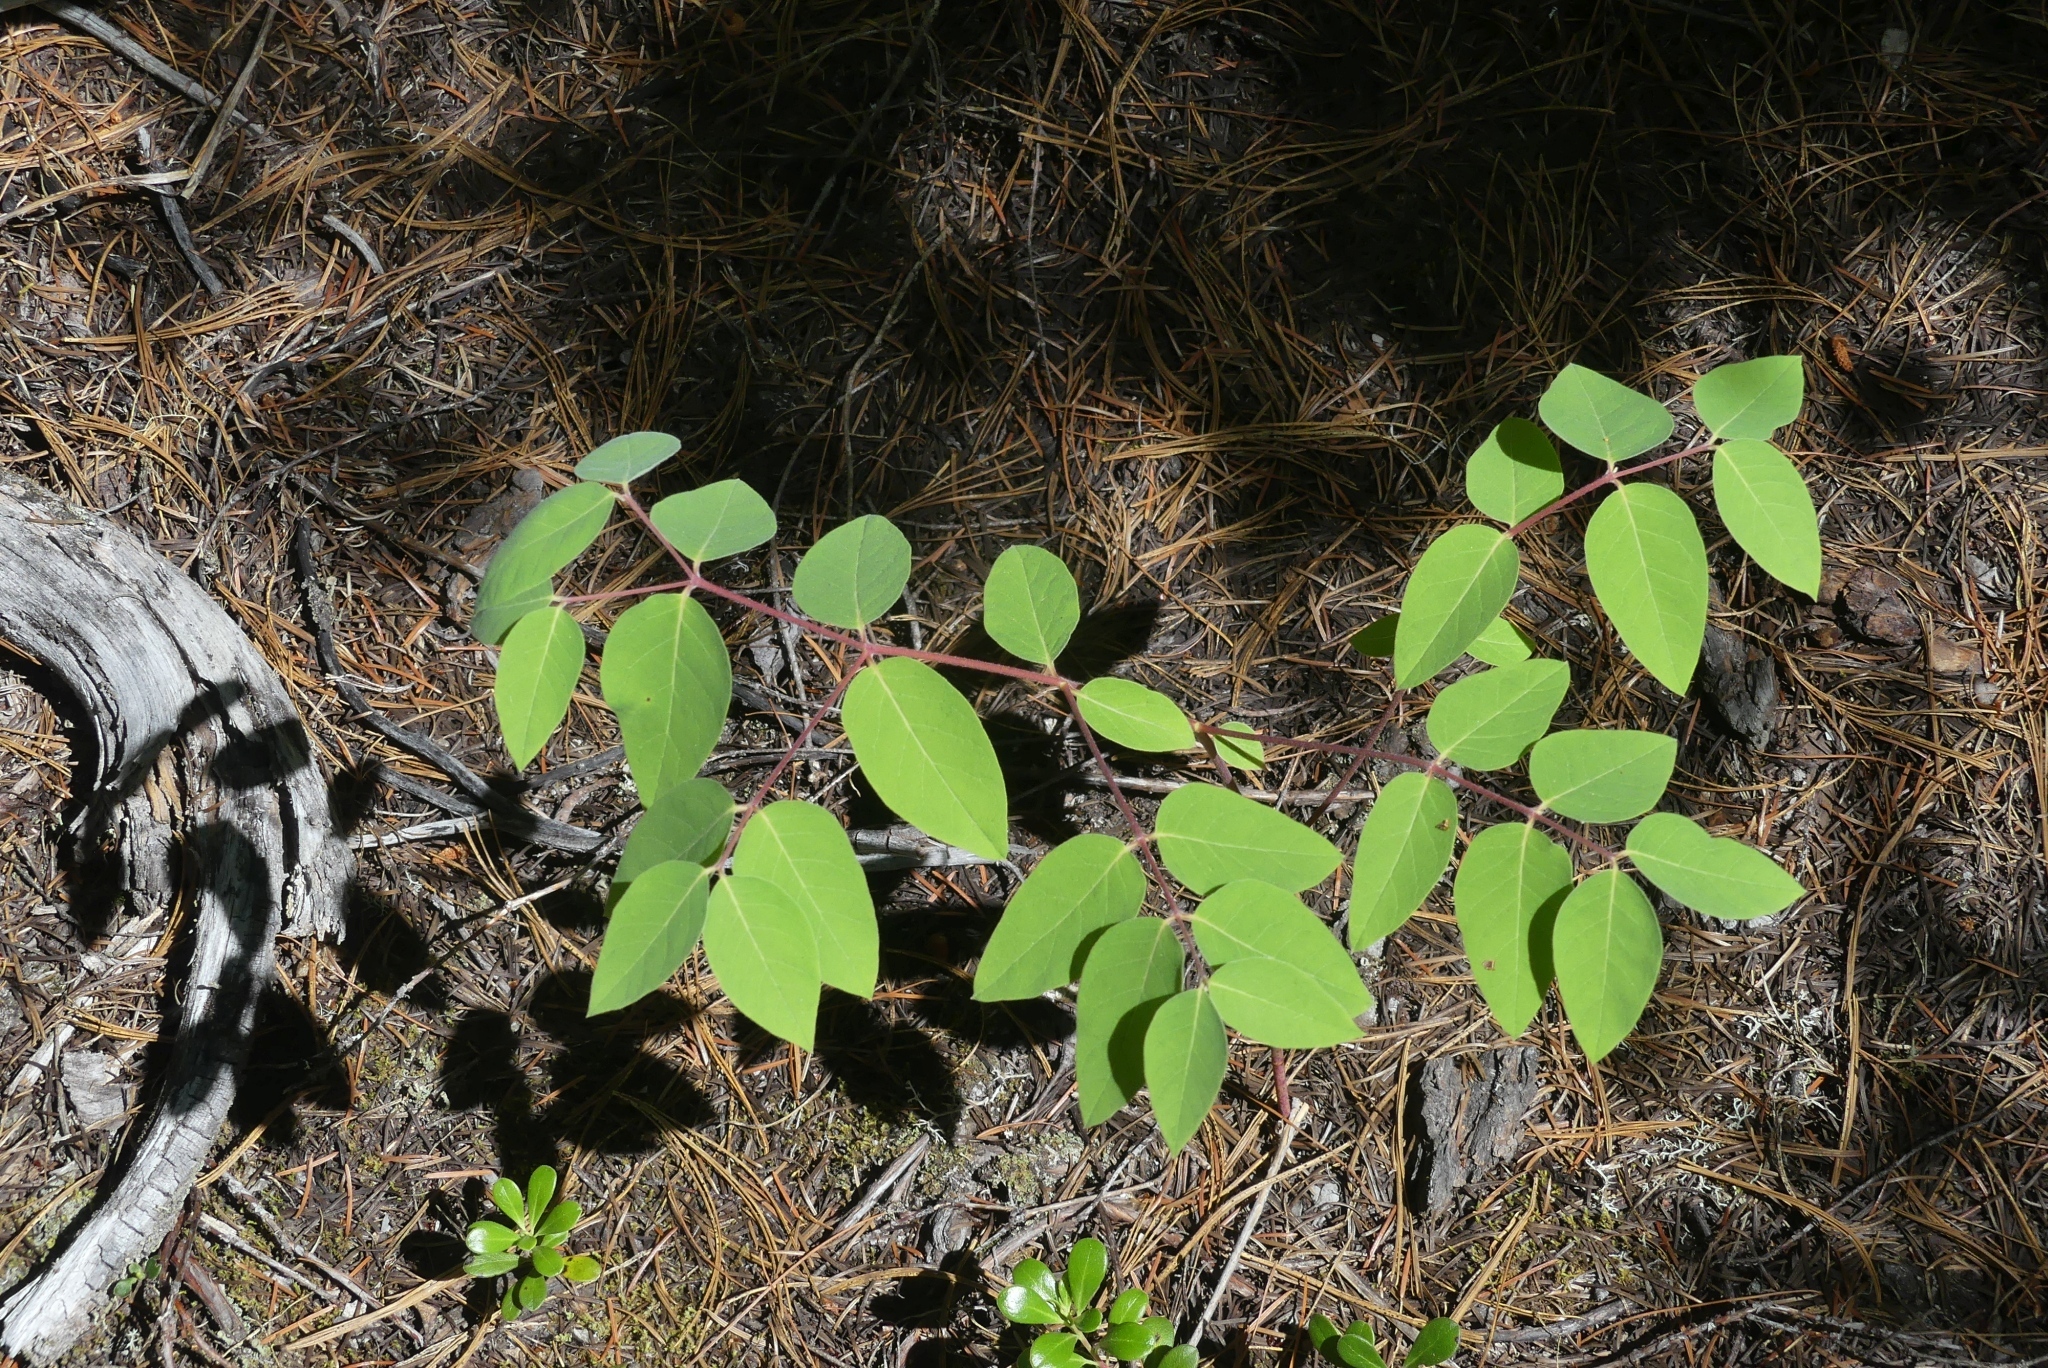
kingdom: Plantae
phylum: Tracheophyta
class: Magnoliopsida
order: Gentianales
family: Apocynaceae
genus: Apocynum
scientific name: Apocynum androsaemifolium
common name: Spreading dogbane
